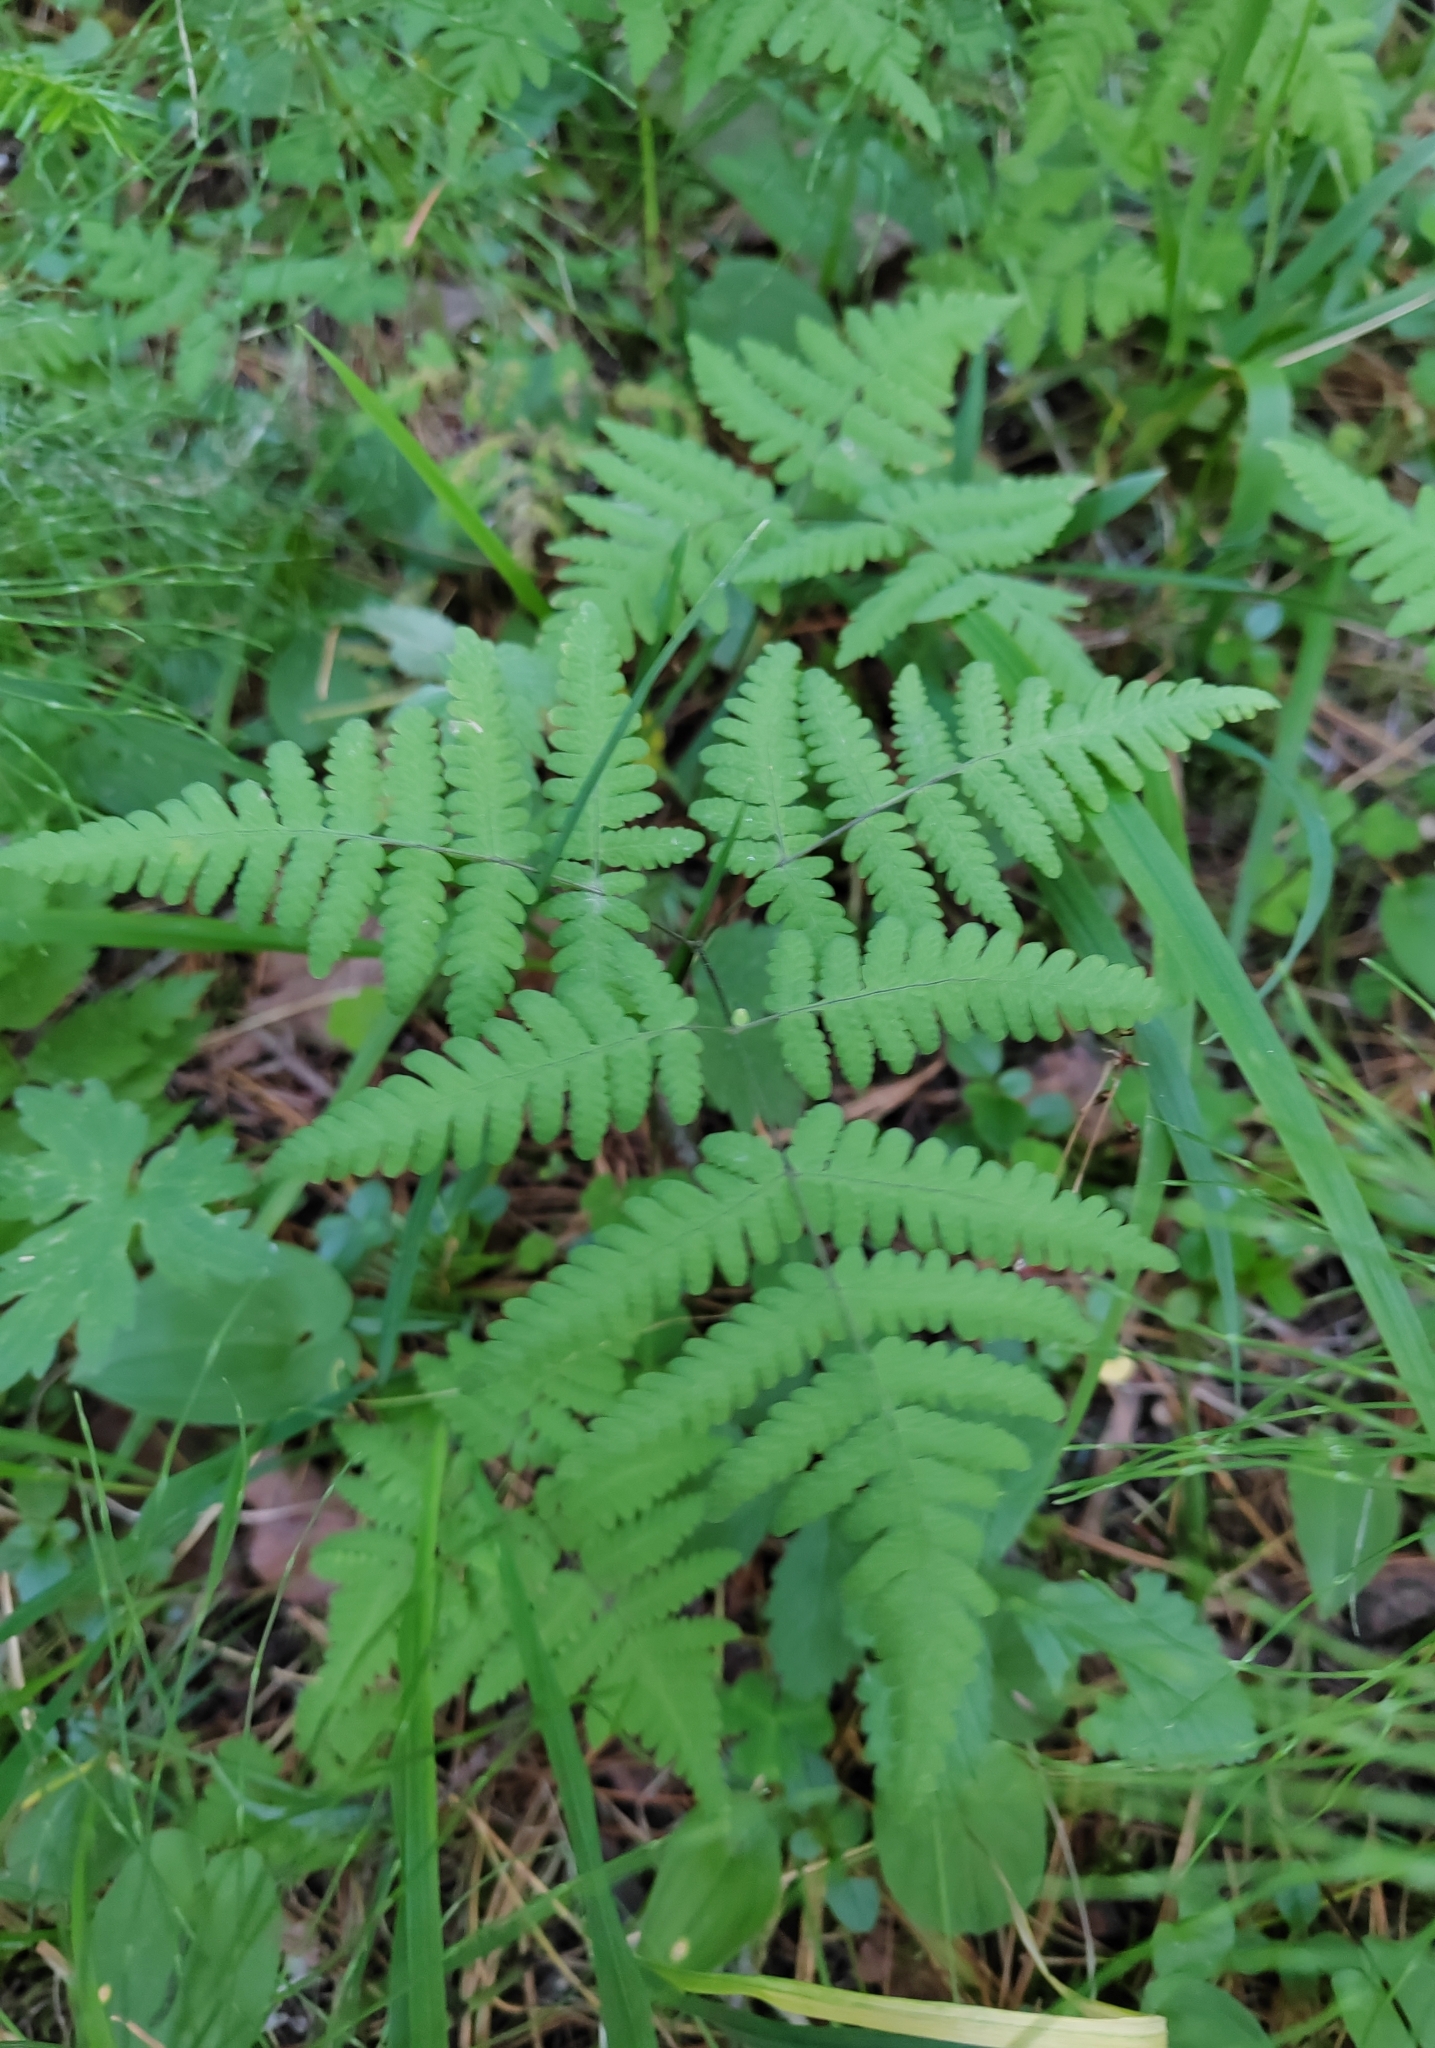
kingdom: Plantae
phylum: Tracheophyta
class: Polypodiopsida
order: Polypodiales
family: Cystopteridaceae
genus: Gymnocarpium
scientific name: Gymnocarpium dryopteris
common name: Oak fern
